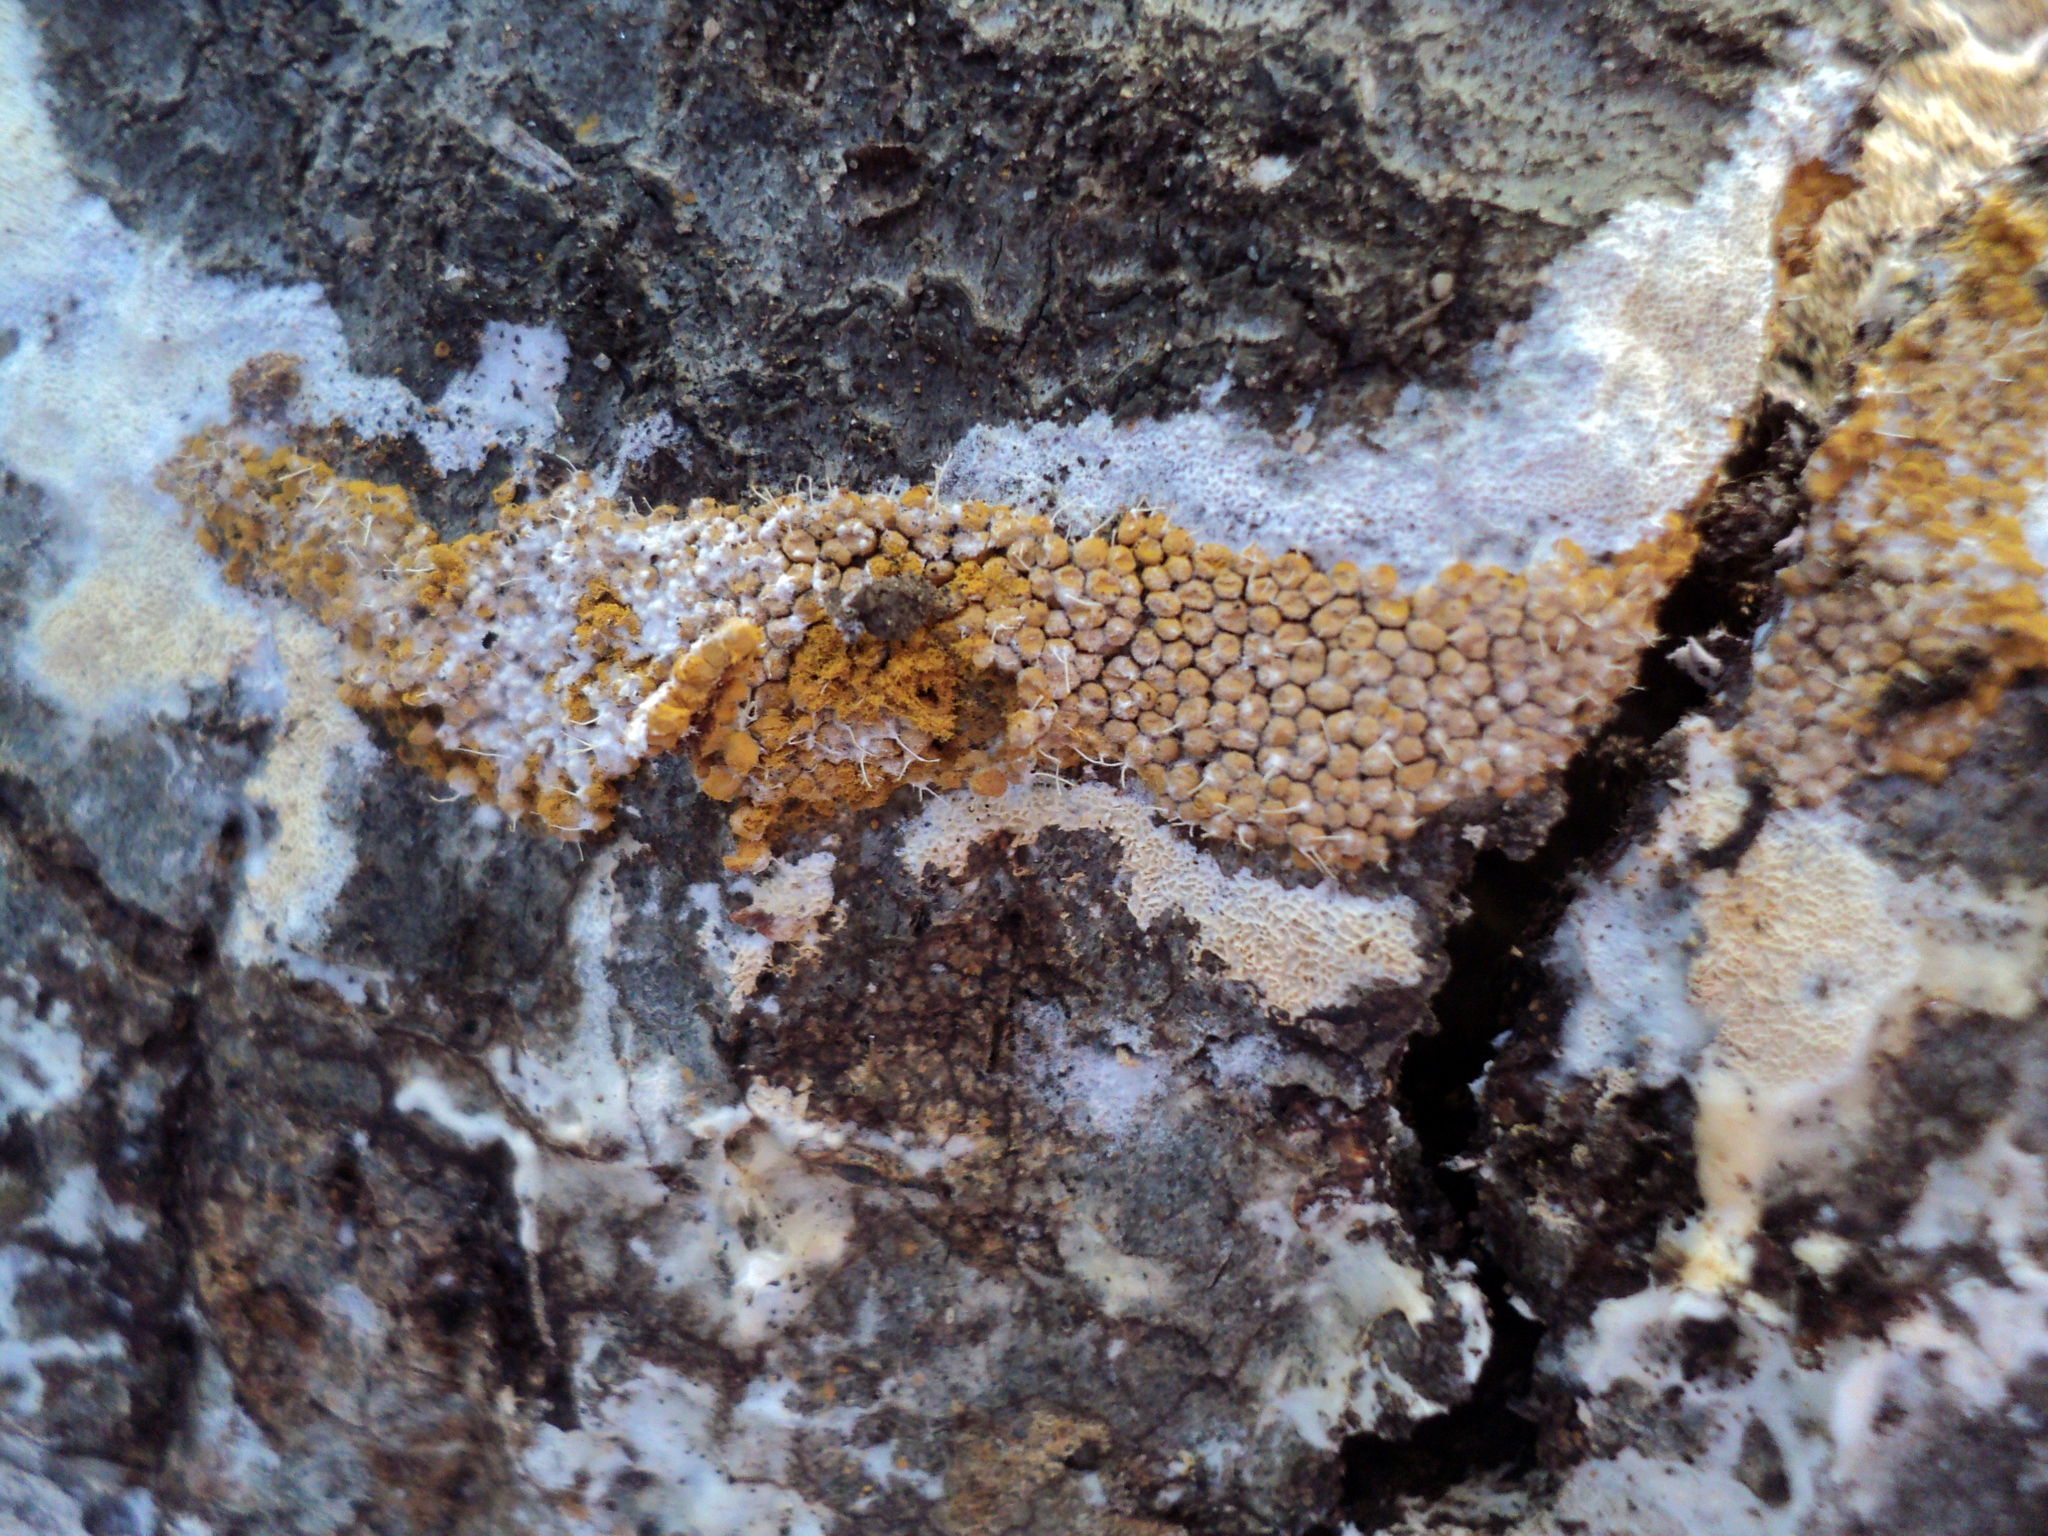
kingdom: Fungi
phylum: Ascomycota
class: Sordariomycetes
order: Hypocreales
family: Ophiocordycipitaceae
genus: Polycephalomyces
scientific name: Polycephalomyces tomentosus
